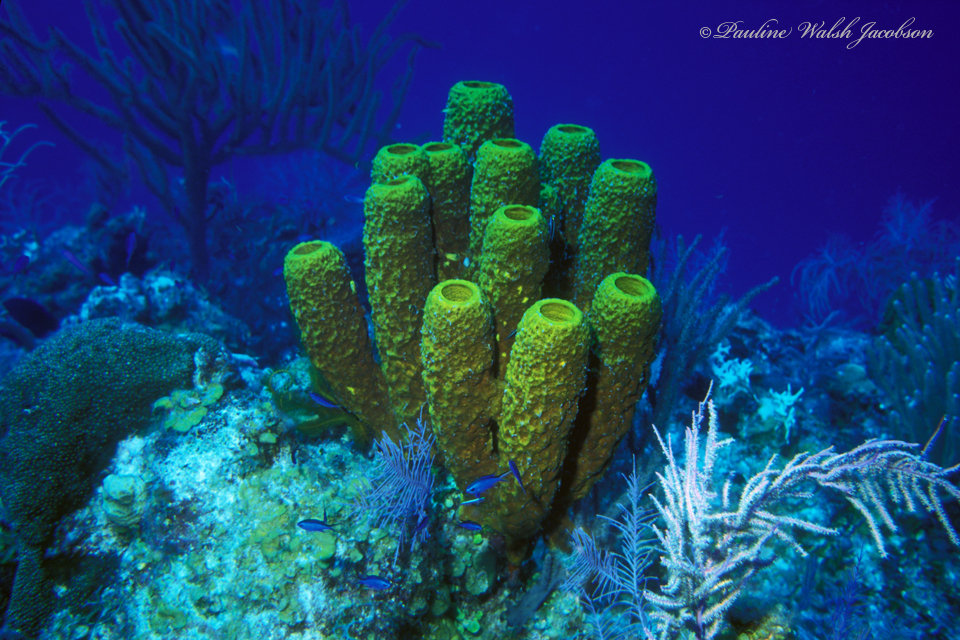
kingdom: Animalia
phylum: Porifera
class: Demospongiae
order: Verongiida
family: Aplysinidae
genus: Aplysina
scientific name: Aplysina fistularis
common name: Candle sponge
